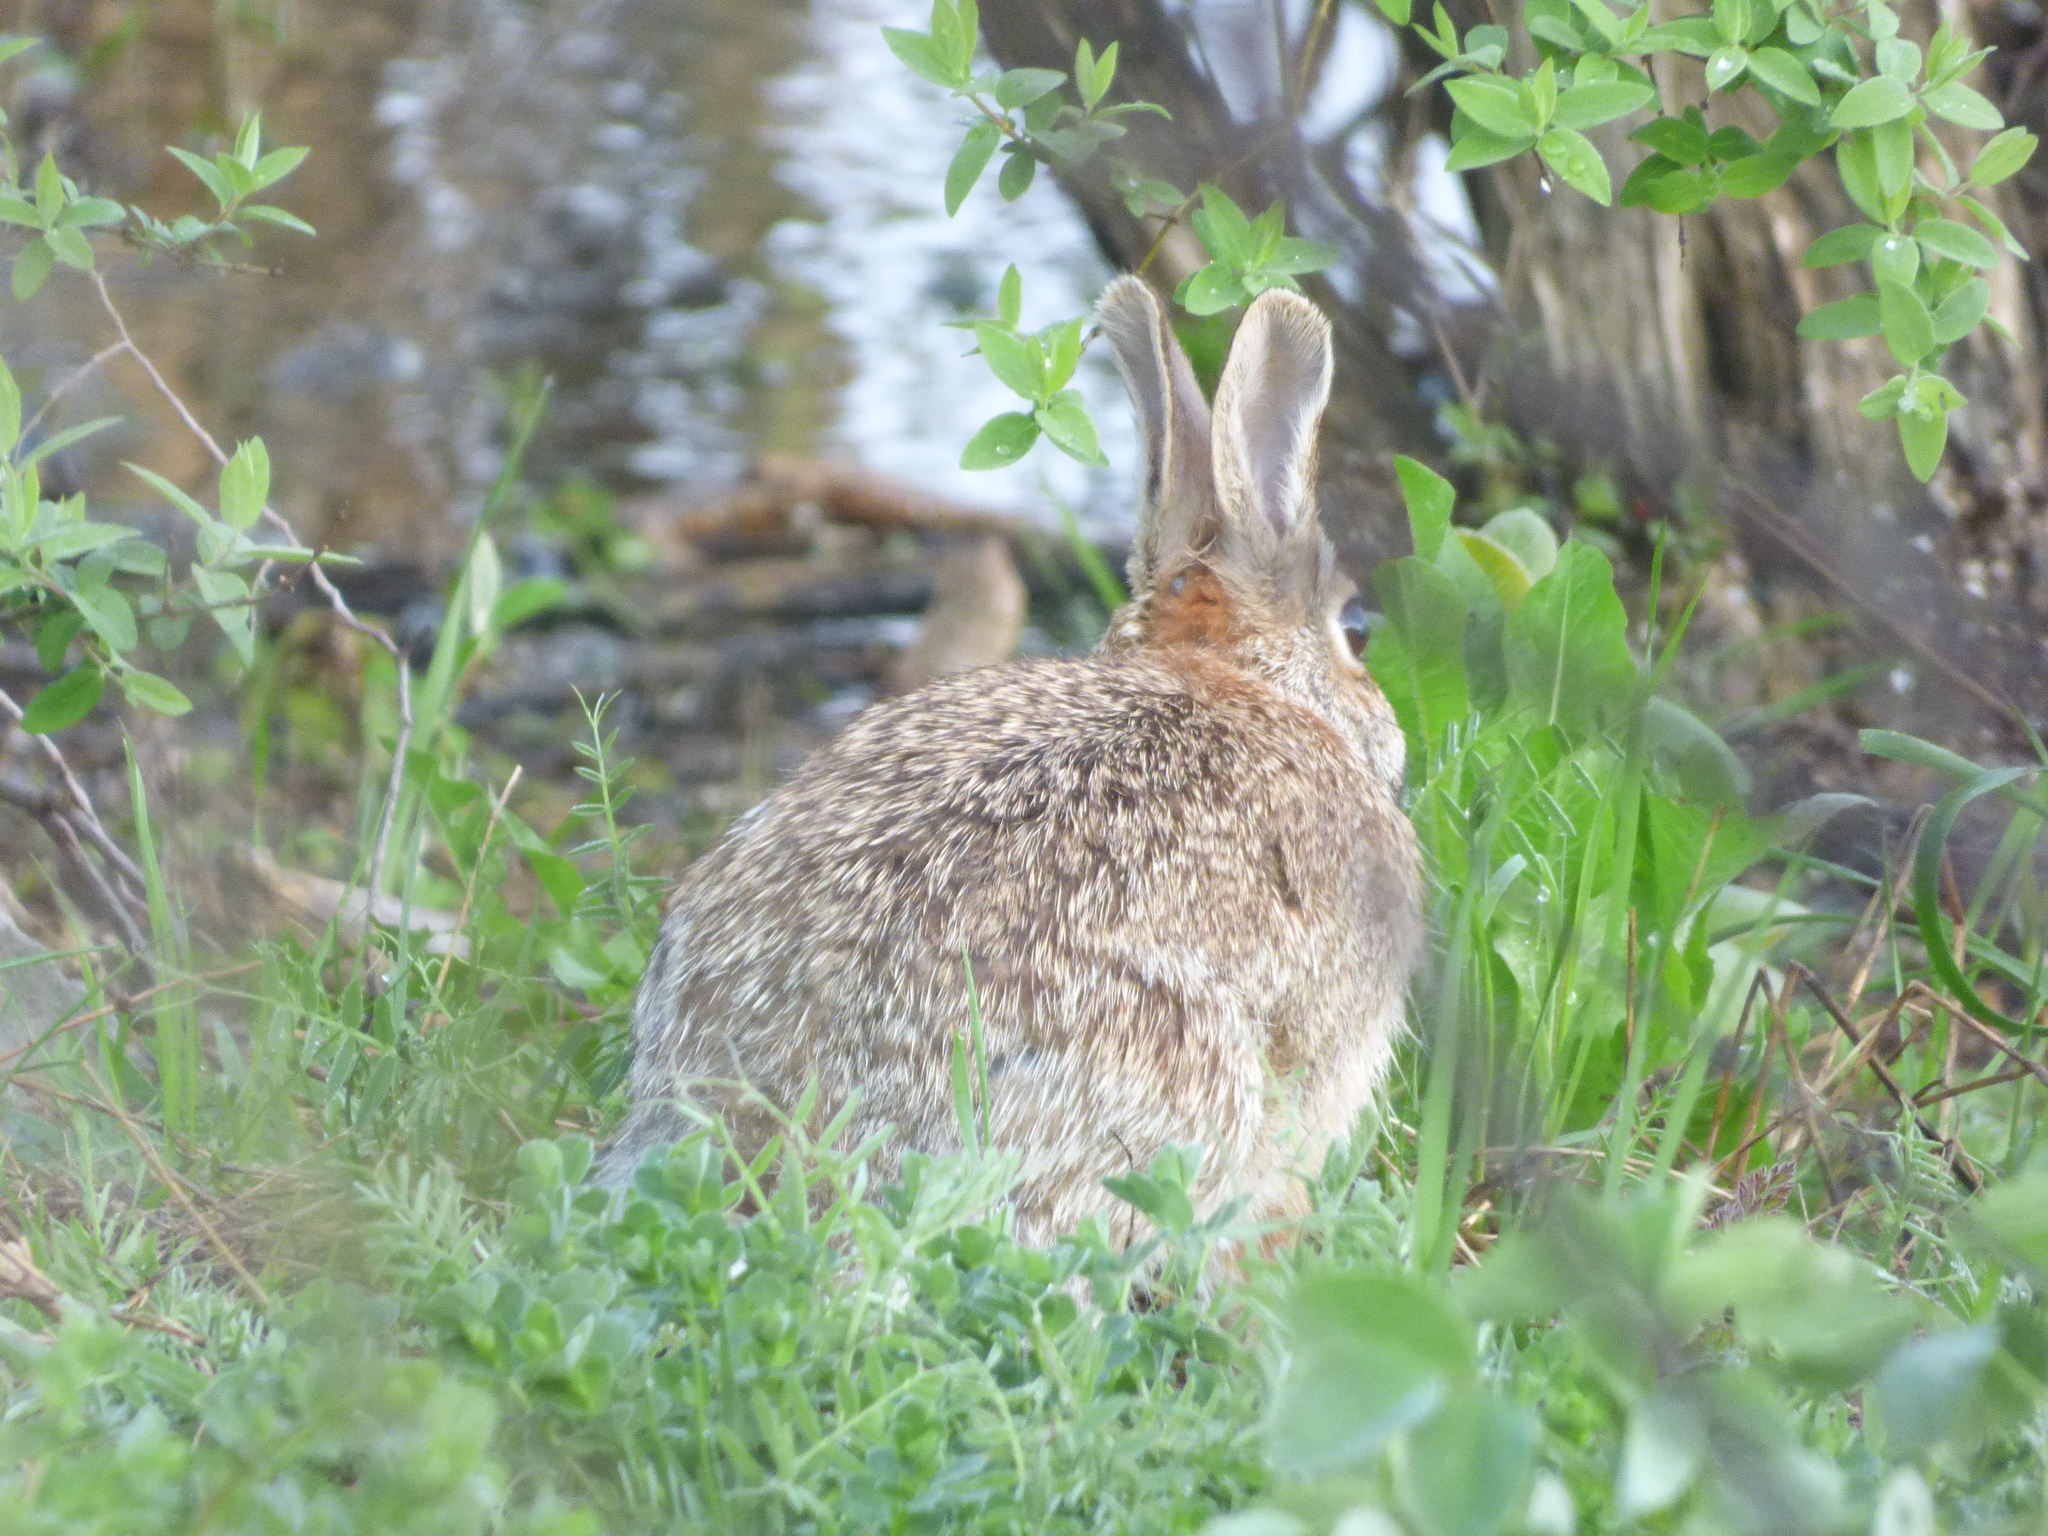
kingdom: Animalia
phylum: Chordata
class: Mammalia
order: Lagomorpha
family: Leporidae
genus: Sylvilagus
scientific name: Sylvilagus floridanus
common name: Eastern cottontail
